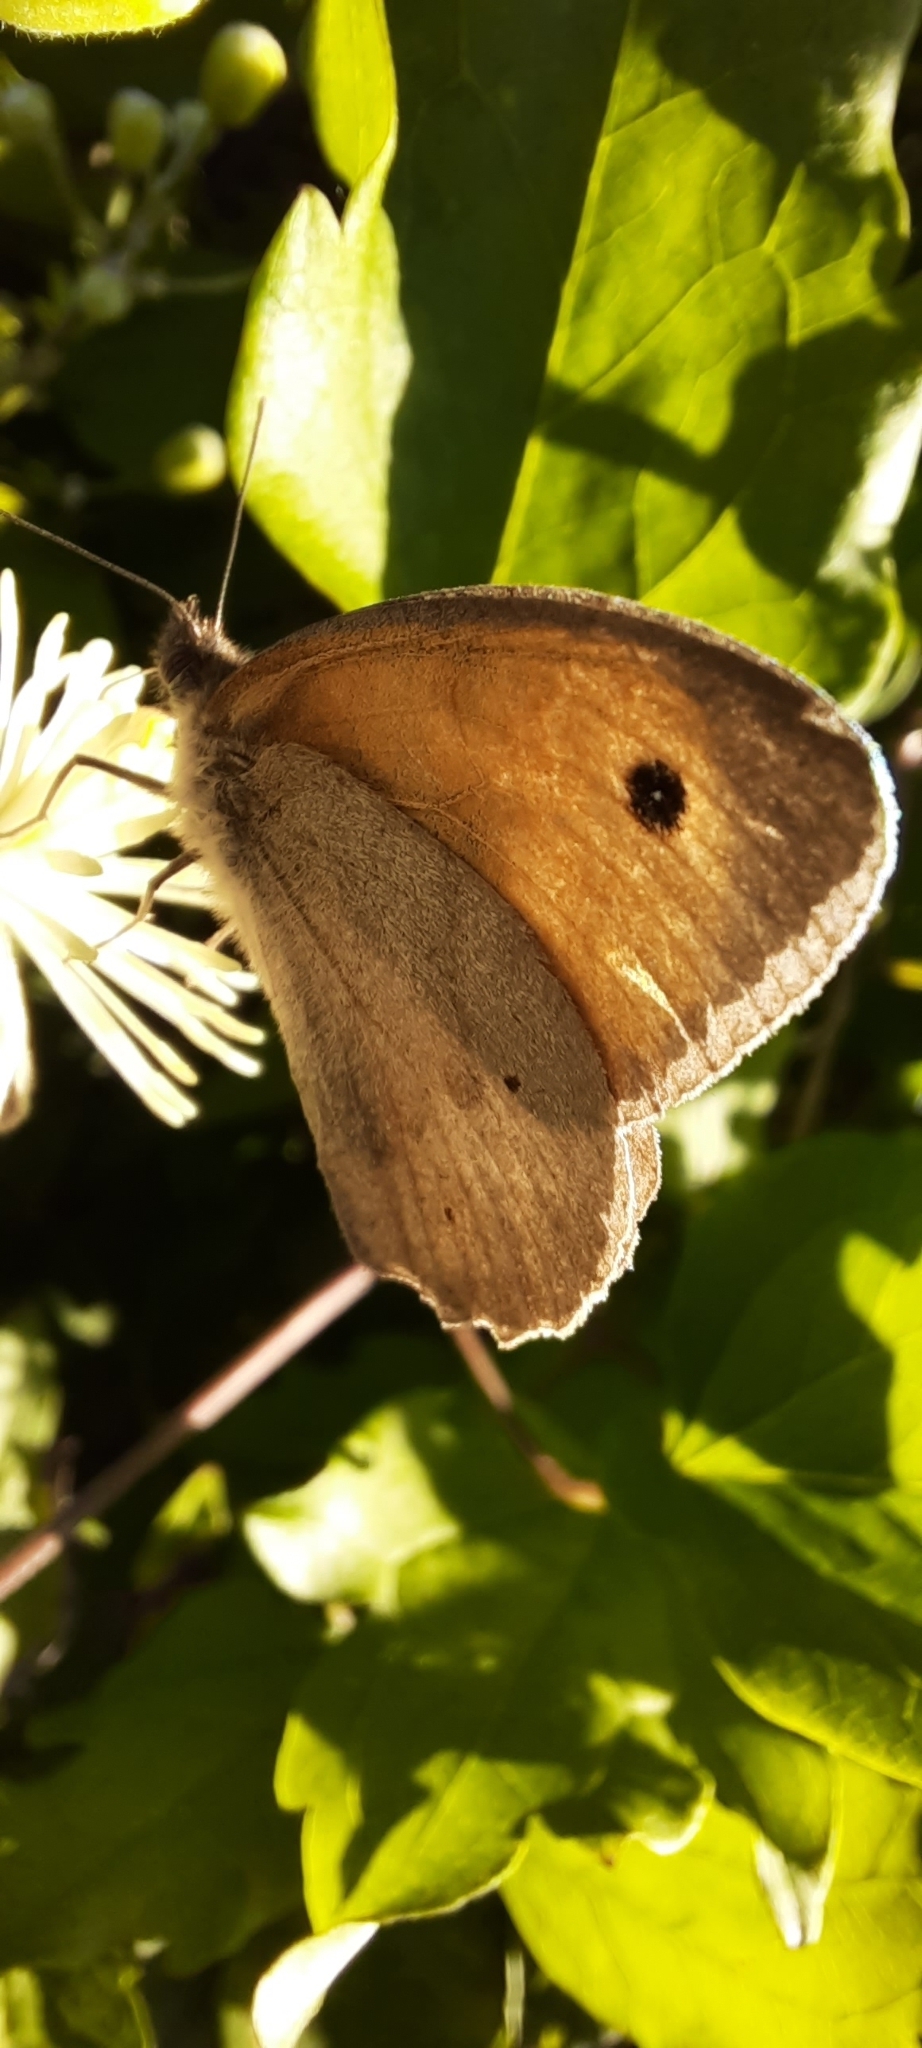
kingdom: Animalia
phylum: Arthropoda
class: Insecta
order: Lepidoptera
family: Nymphalidae
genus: Maniola
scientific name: Maniola jurtina
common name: Meadow brown
